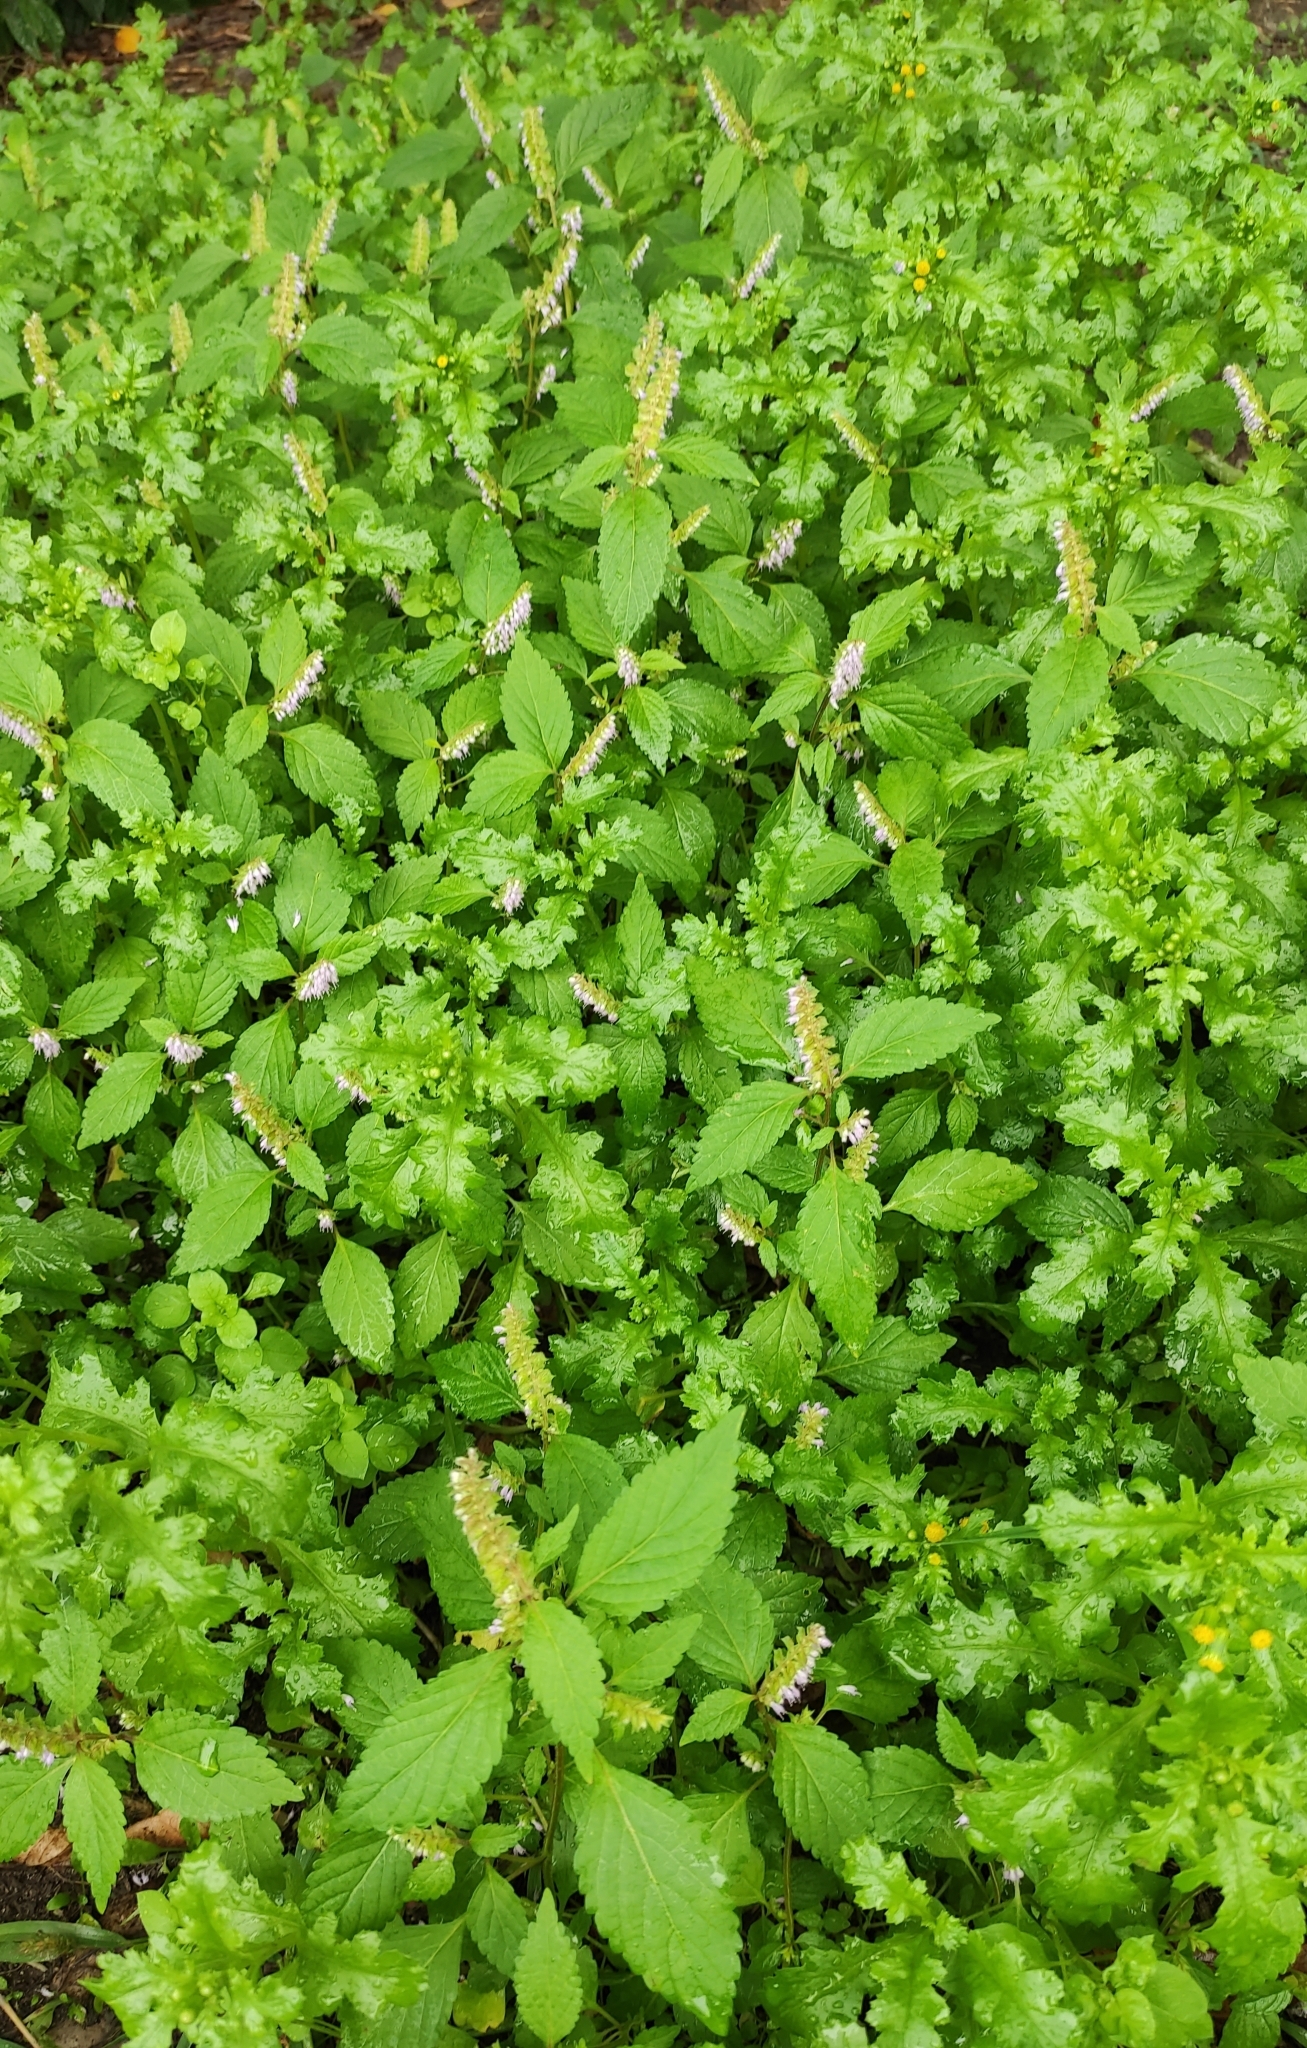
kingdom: Plantae
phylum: Tracheophyta
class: Magnoliopsida
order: Lamiales
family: Lamiaceae
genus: Elsholtzia
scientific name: Elsholtzia ciliata
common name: Ciliate elsholtzia
